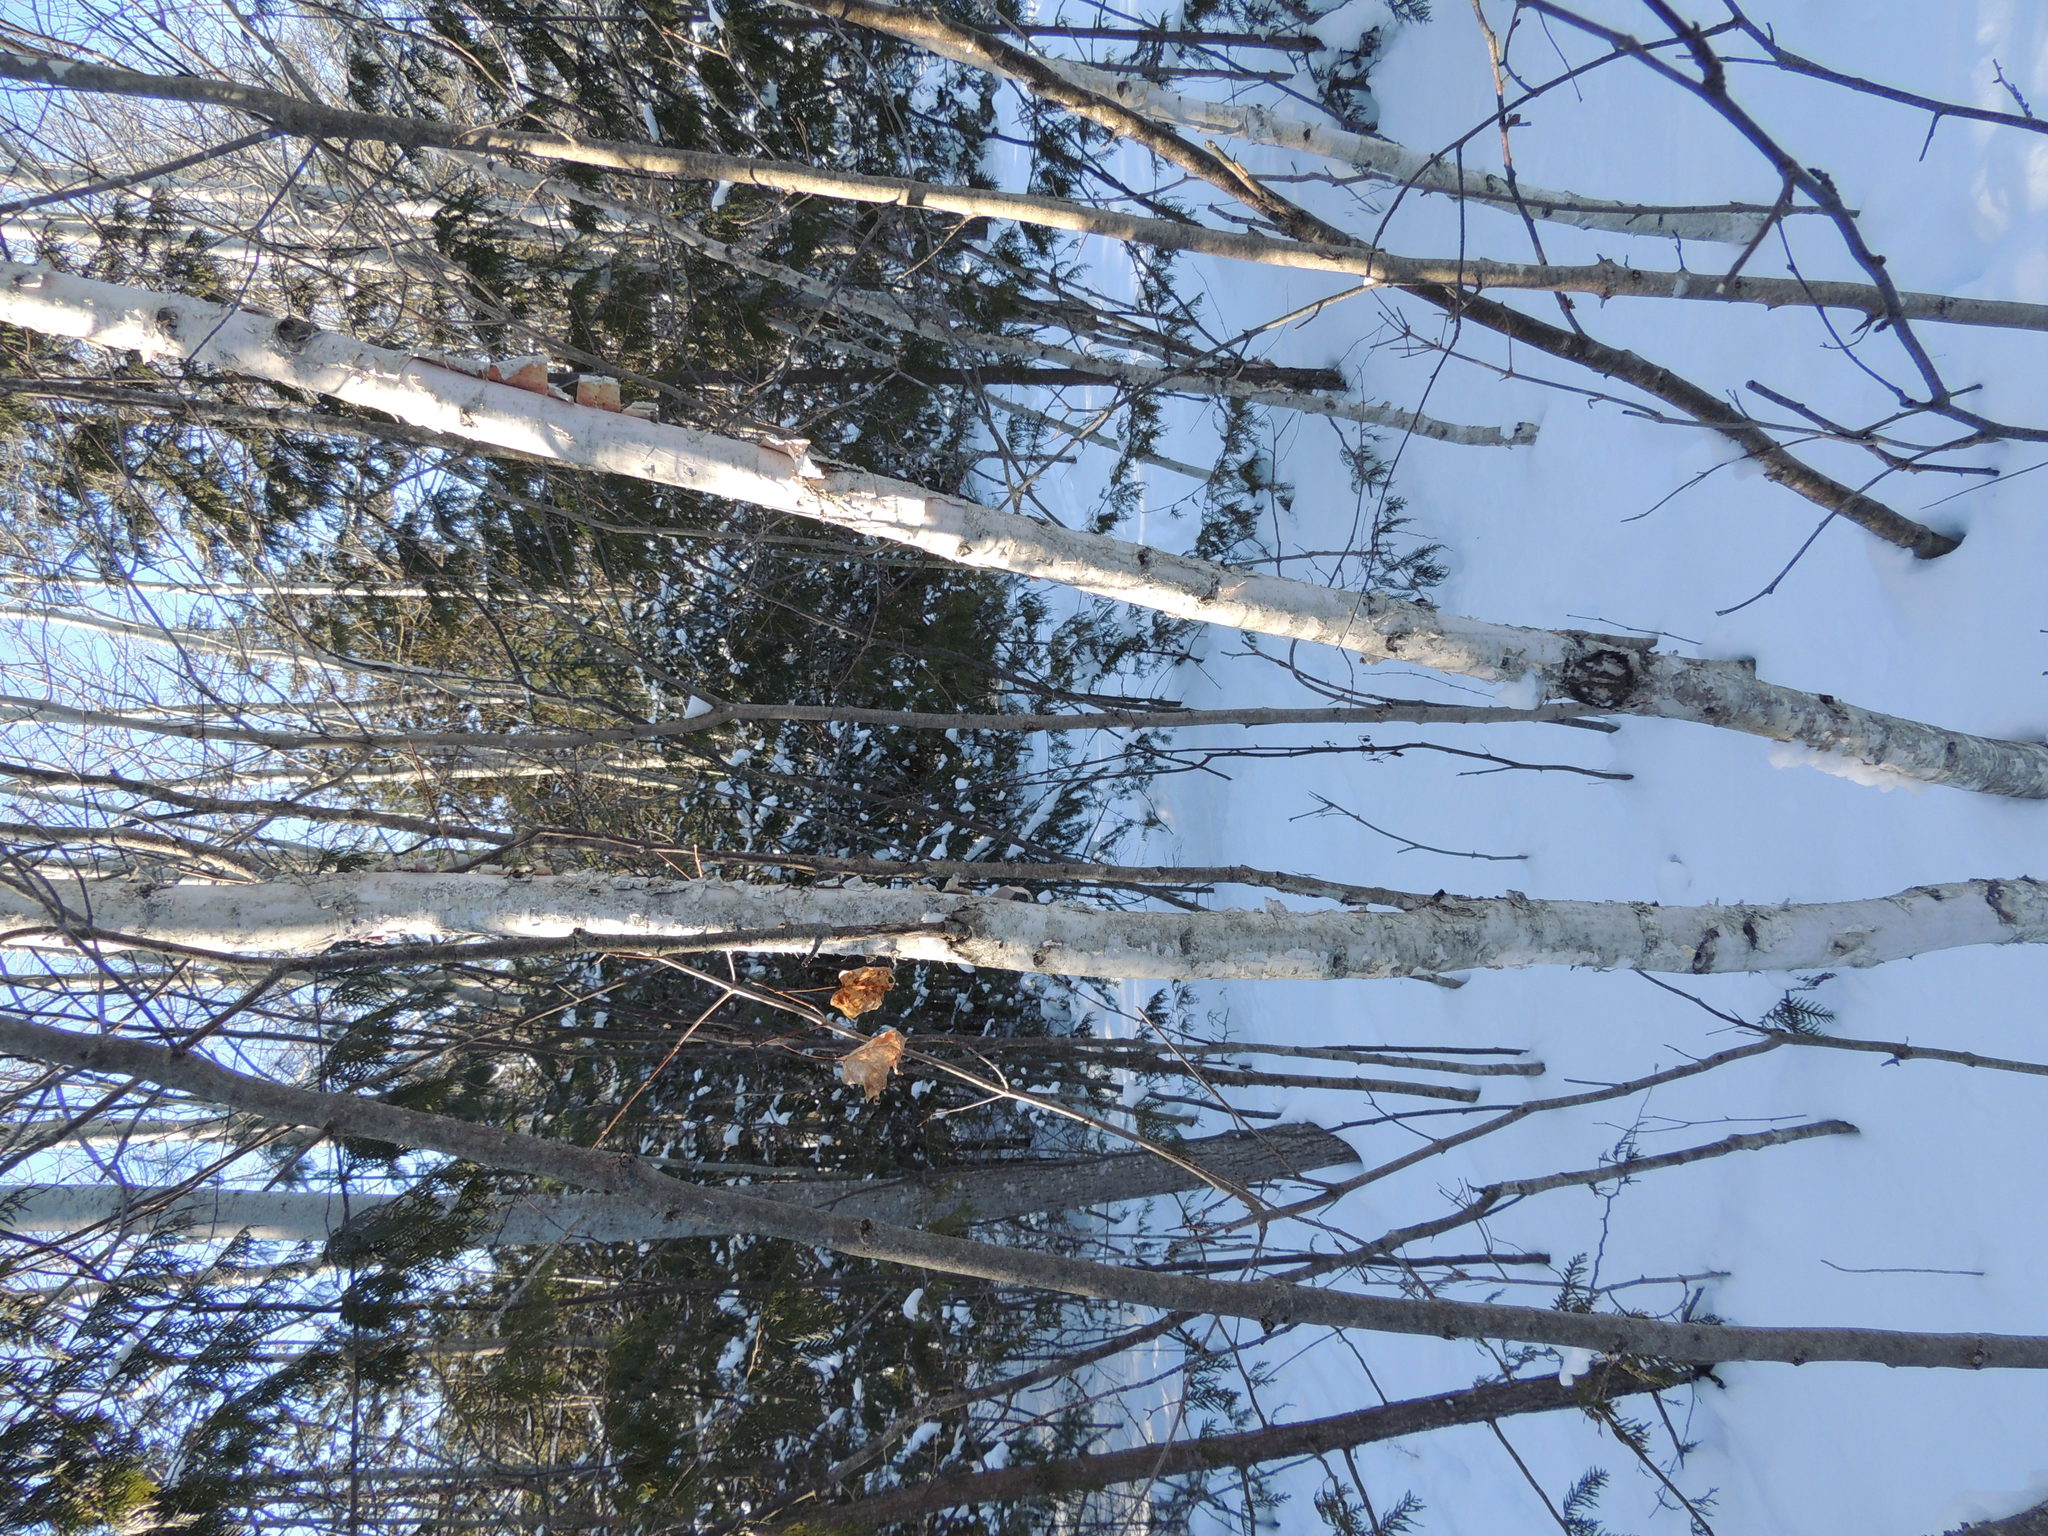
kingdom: Plantae
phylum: Tracheophyta
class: Magnoliopsida
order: Fagales
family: Betulaceae
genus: Betula
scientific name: Betula papyrifera
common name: Paper birch
